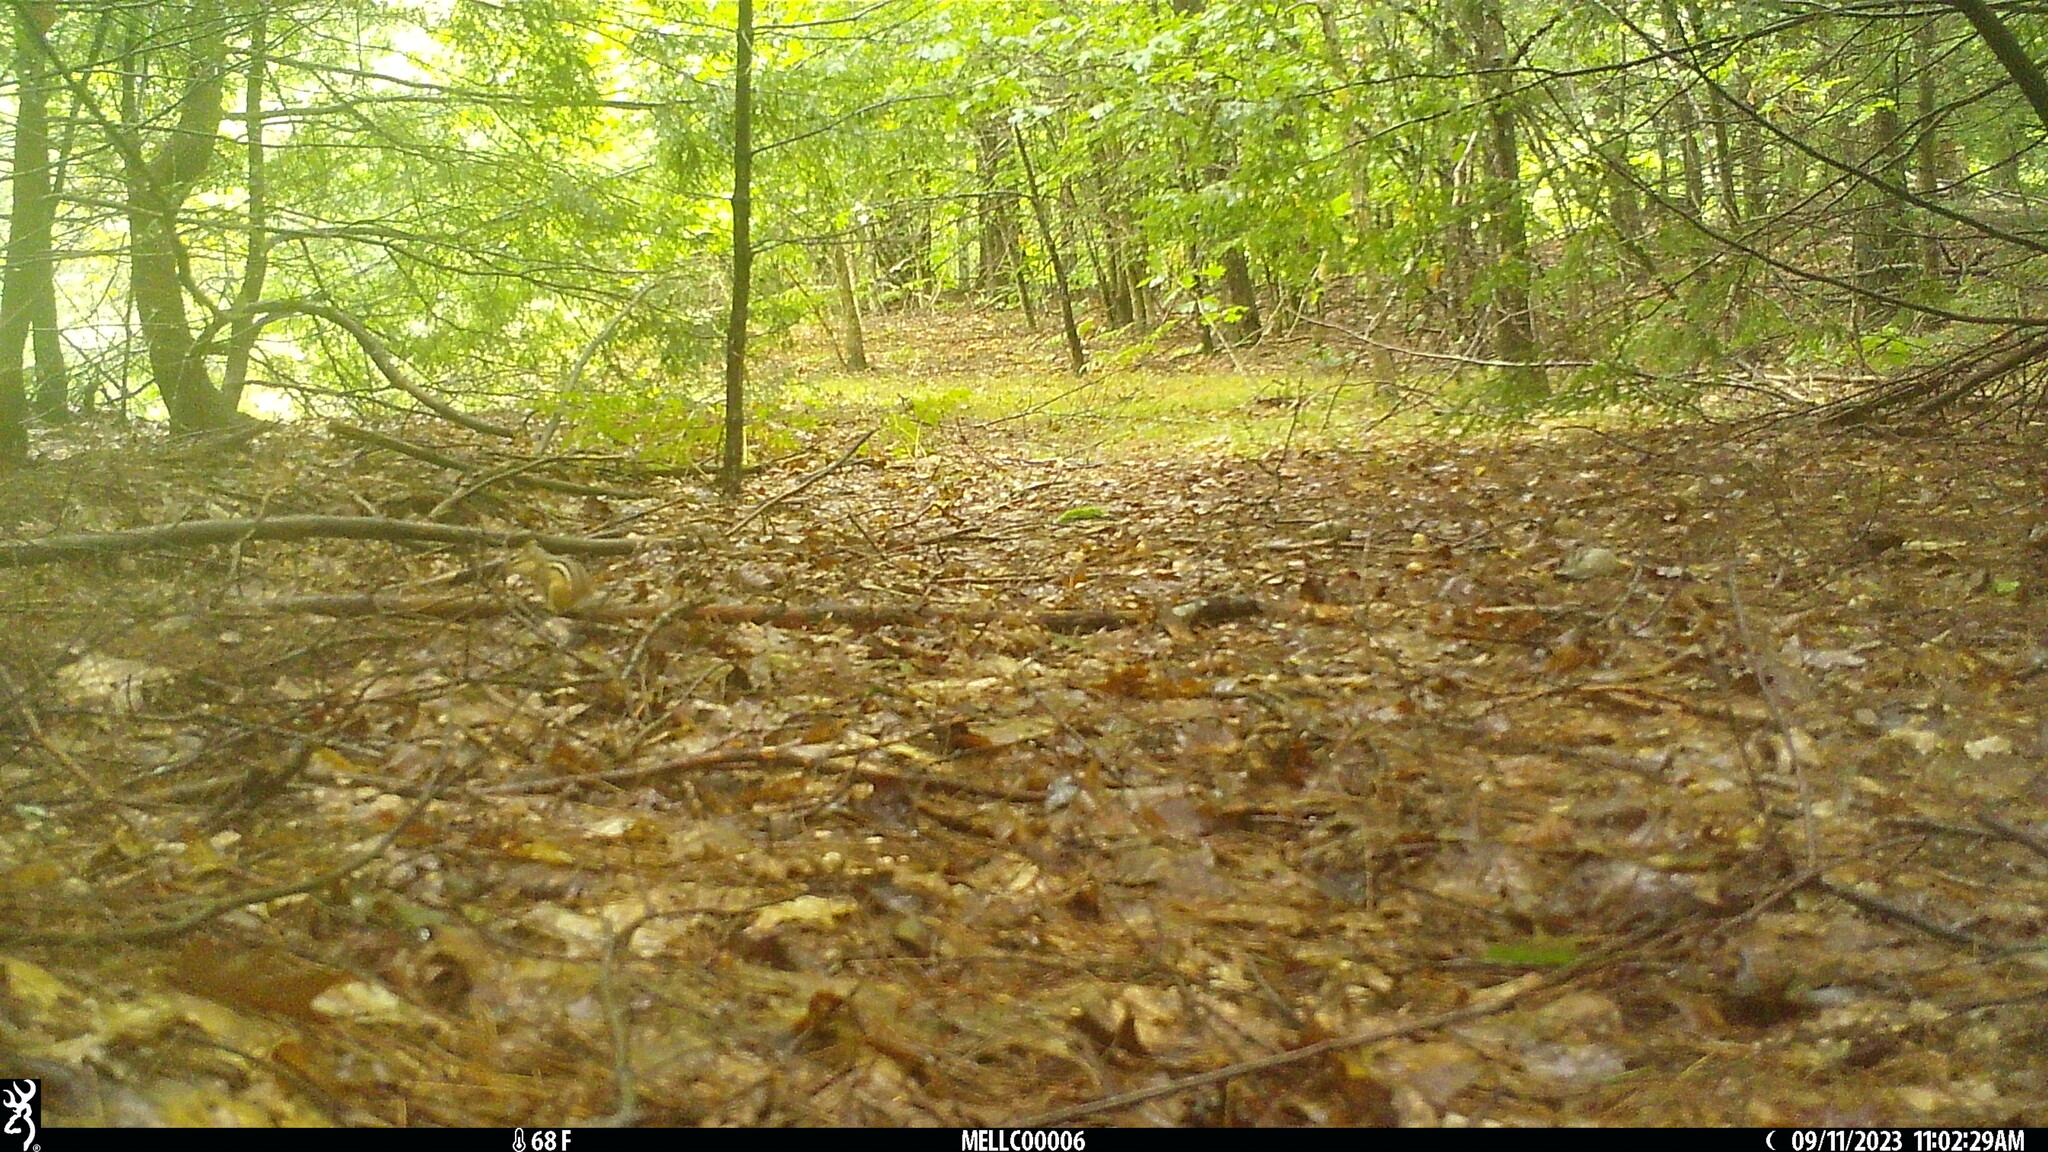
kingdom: Animalia
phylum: Chordata
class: Mammalia
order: Rodentia
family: Sciuridae
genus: Tamias
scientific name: Tamias striatus
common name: Eastern chipmunk
